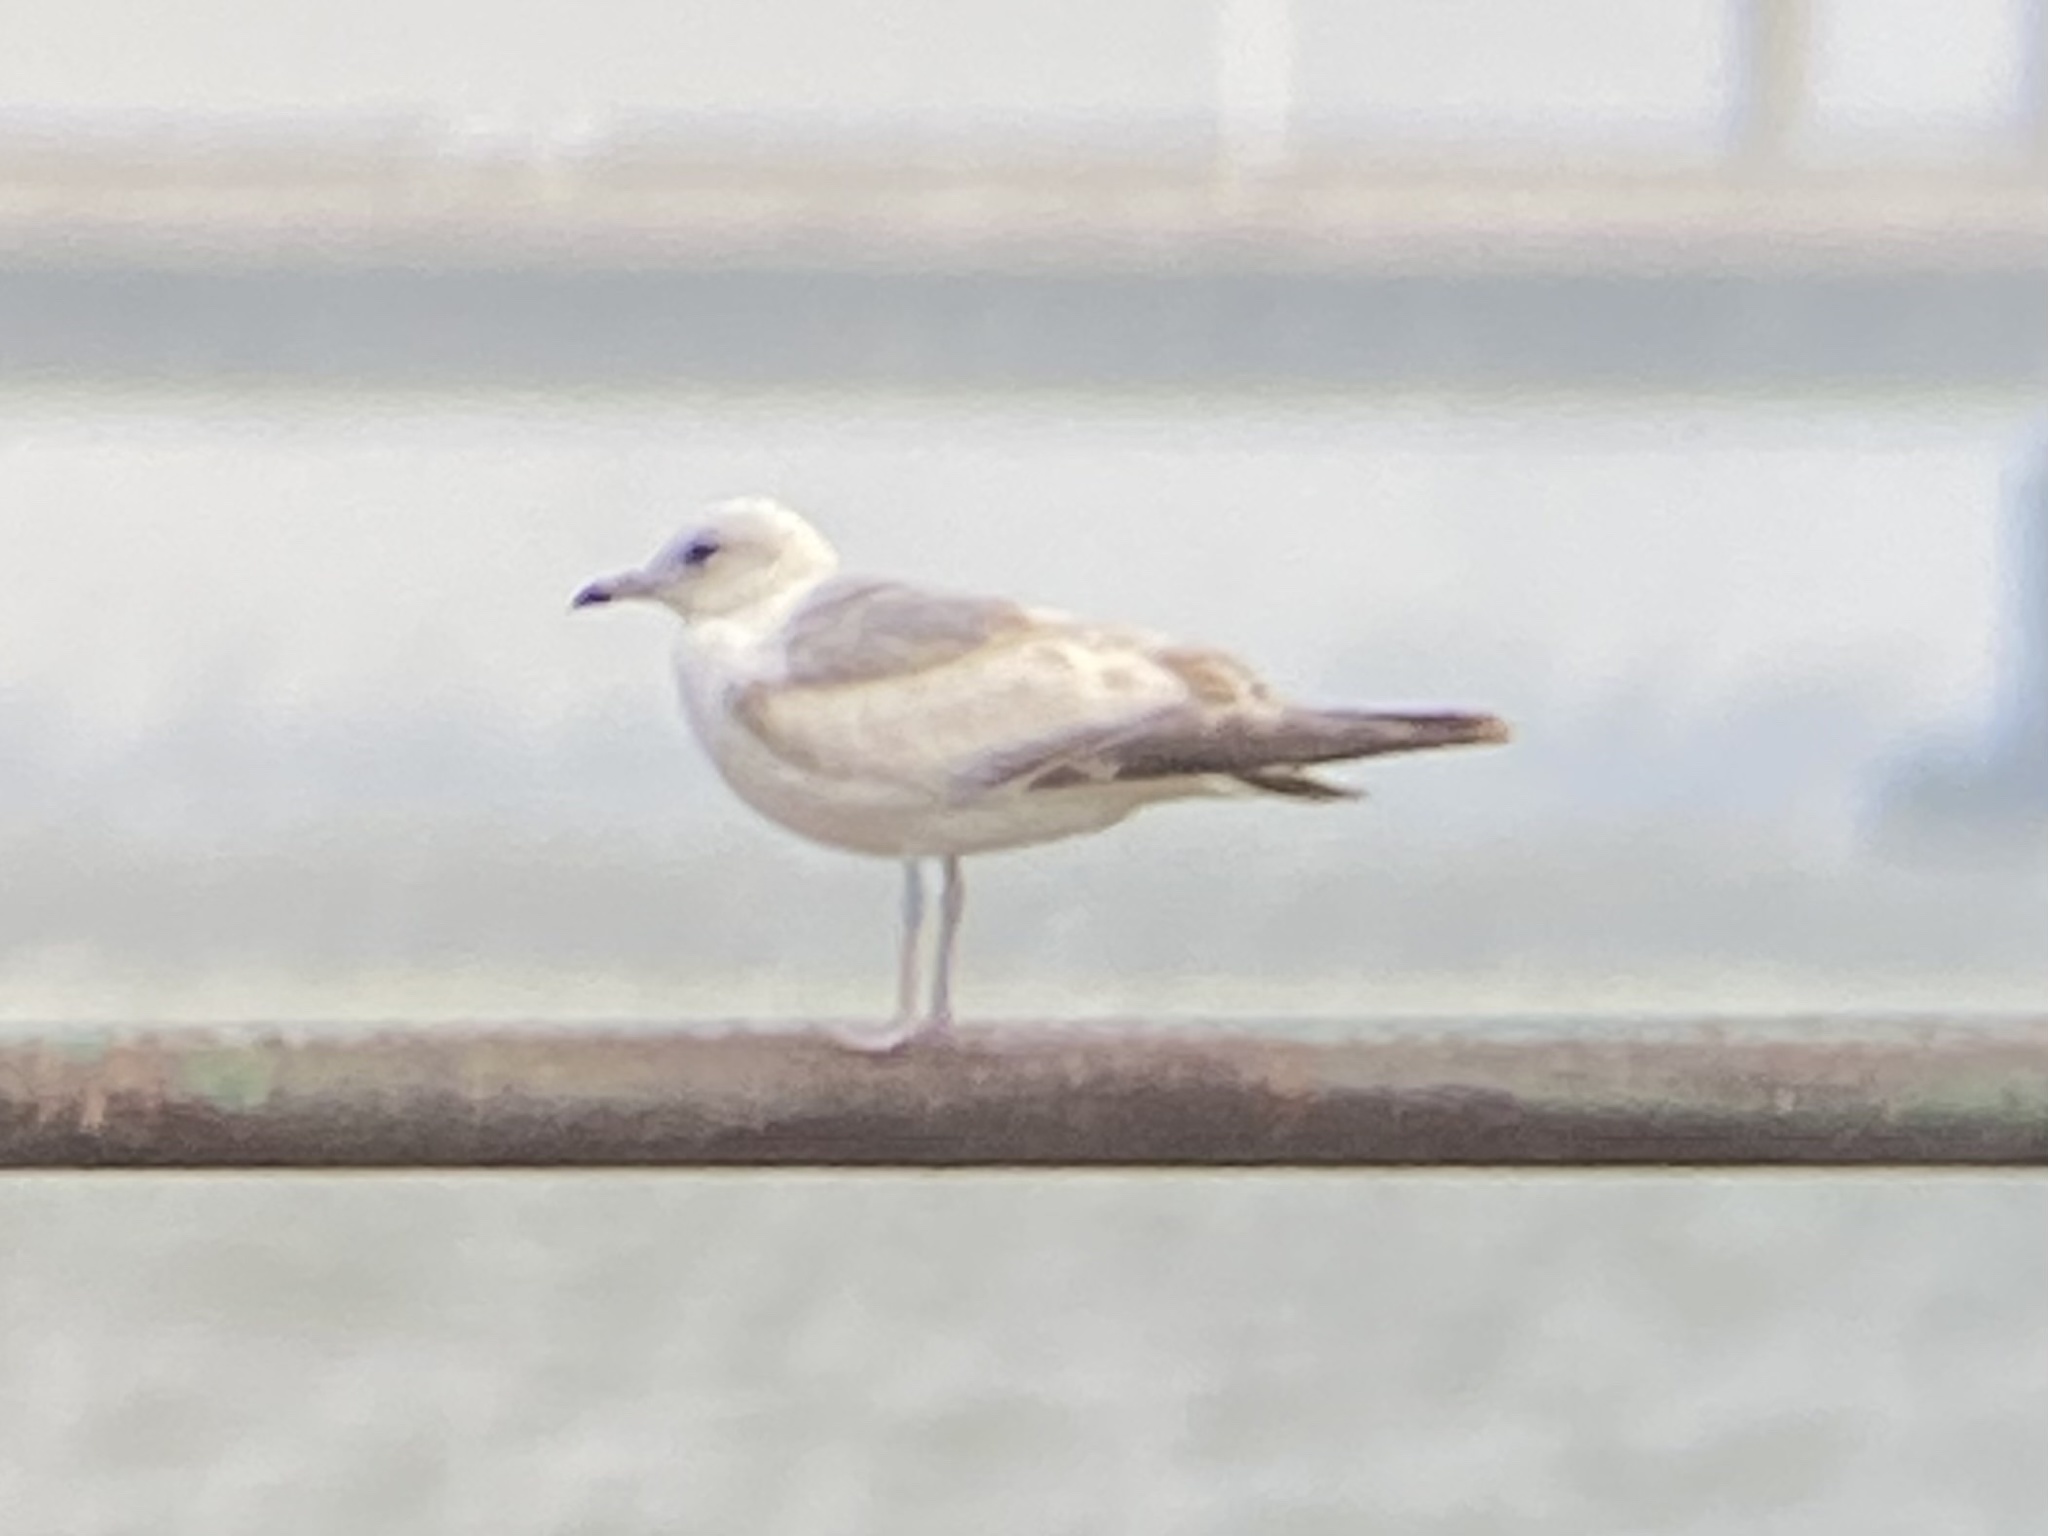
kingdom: Animalia
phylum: Chordata
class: Aves
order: Charadriiformes
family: Laridae
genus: Larus
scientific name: Larus canus
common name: Mew gull
